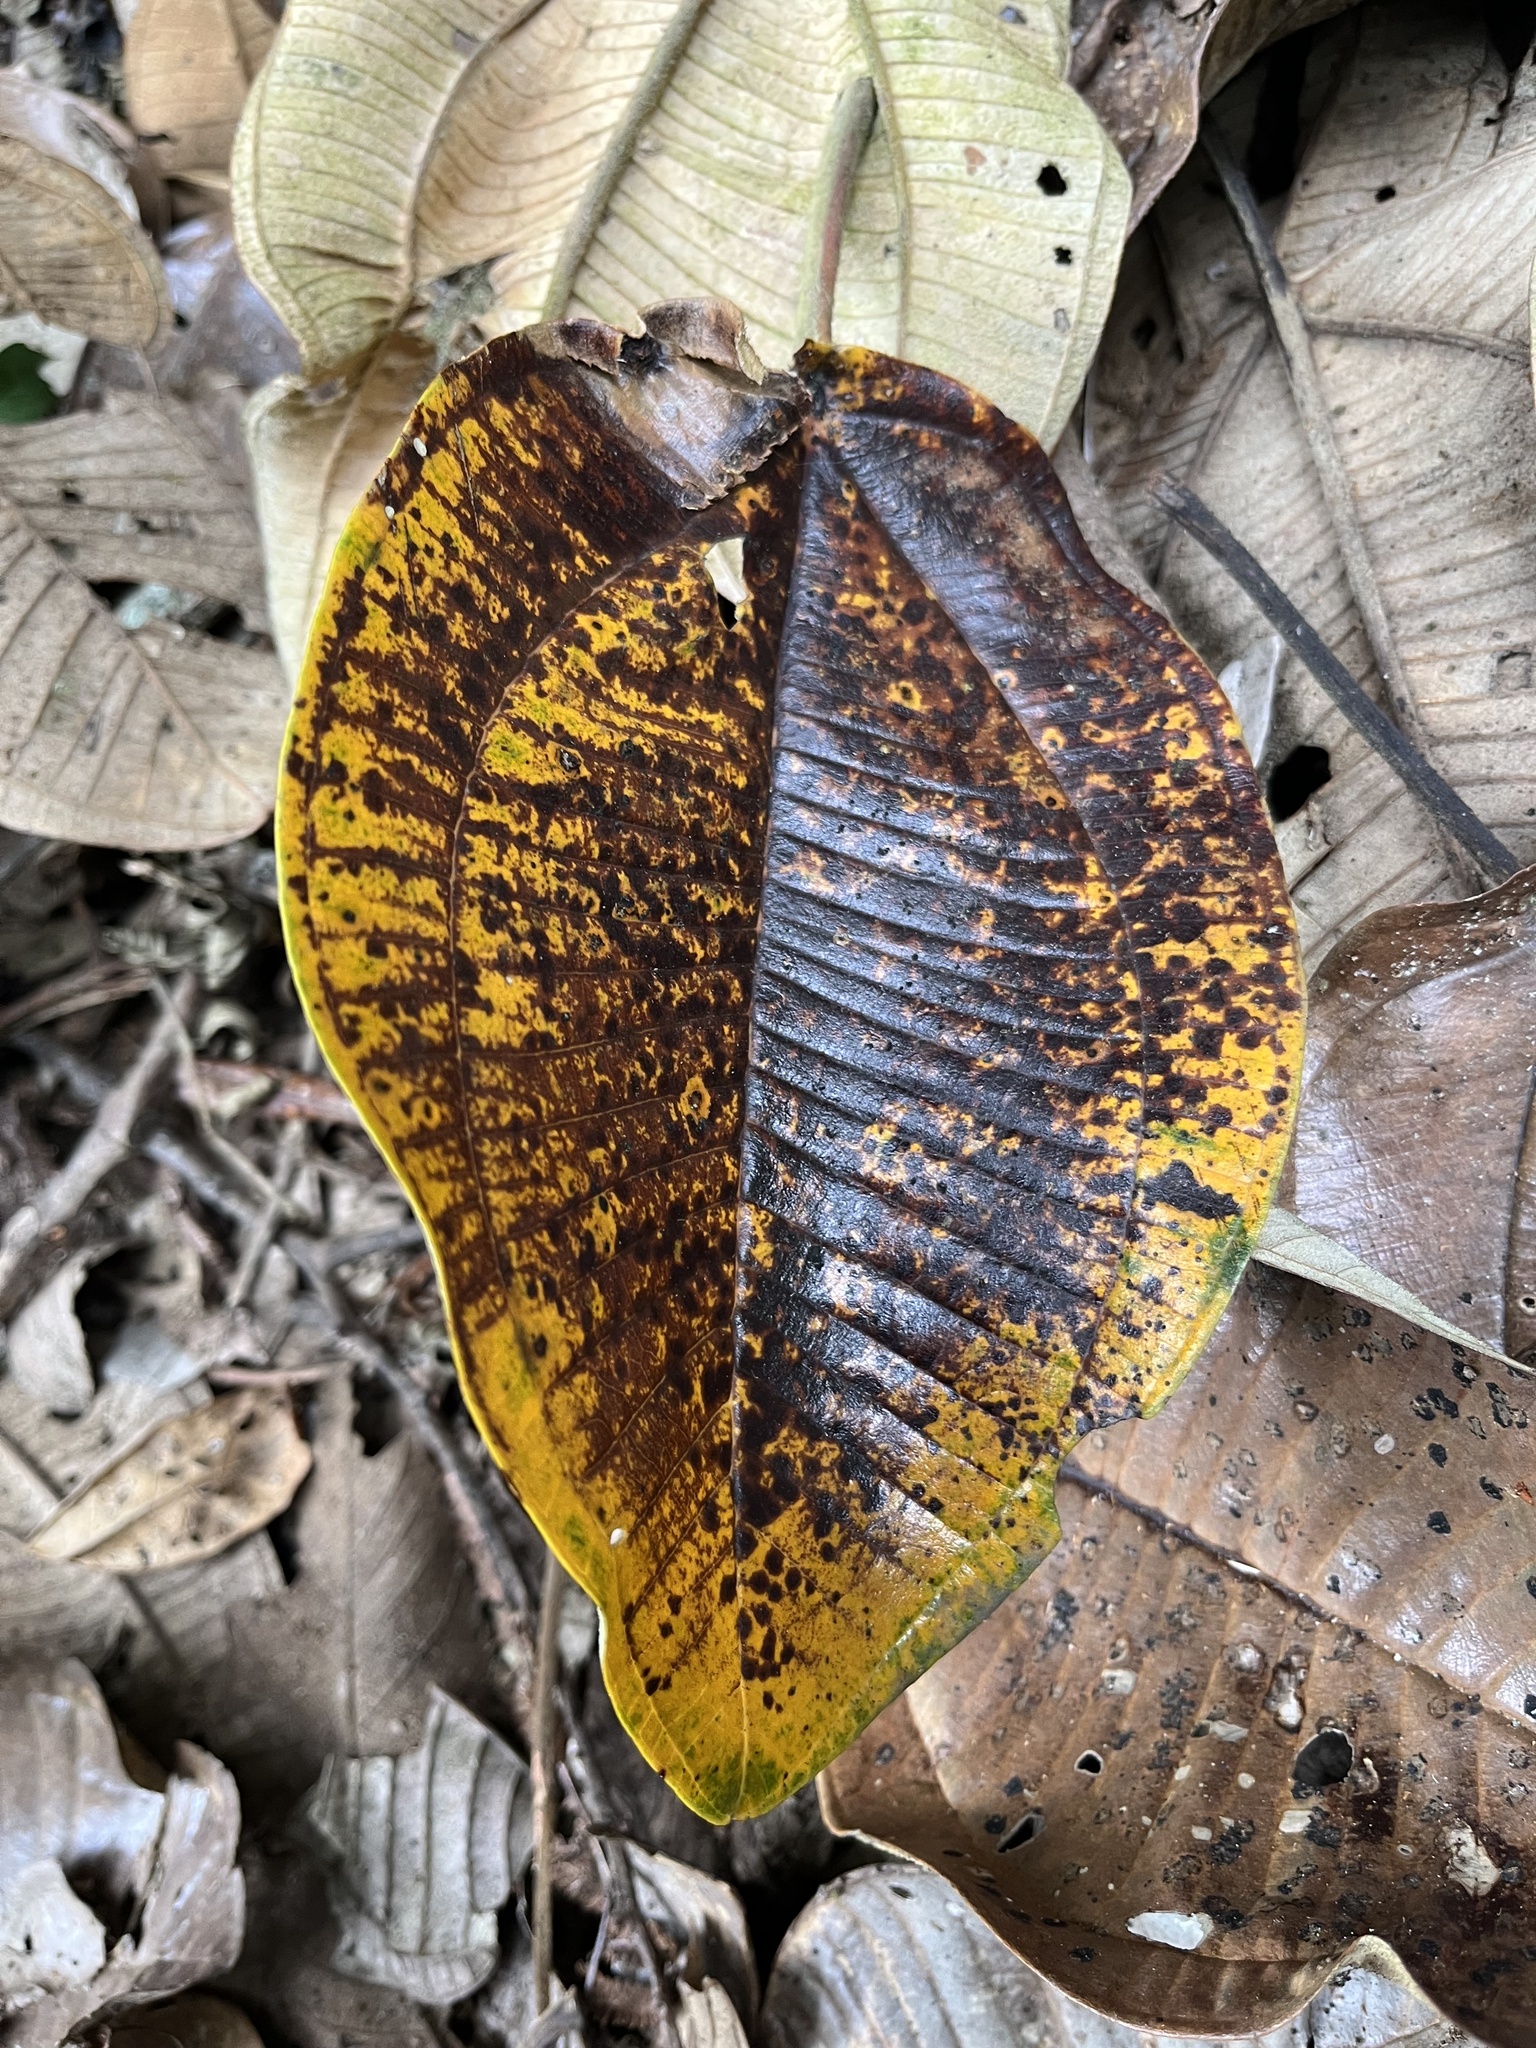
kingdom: Plantae
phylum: Tracheophyta
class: Magnoliopsida
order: Myrtales
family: Melastomataceae
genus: Meriania
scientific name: Meriania macrophylla
